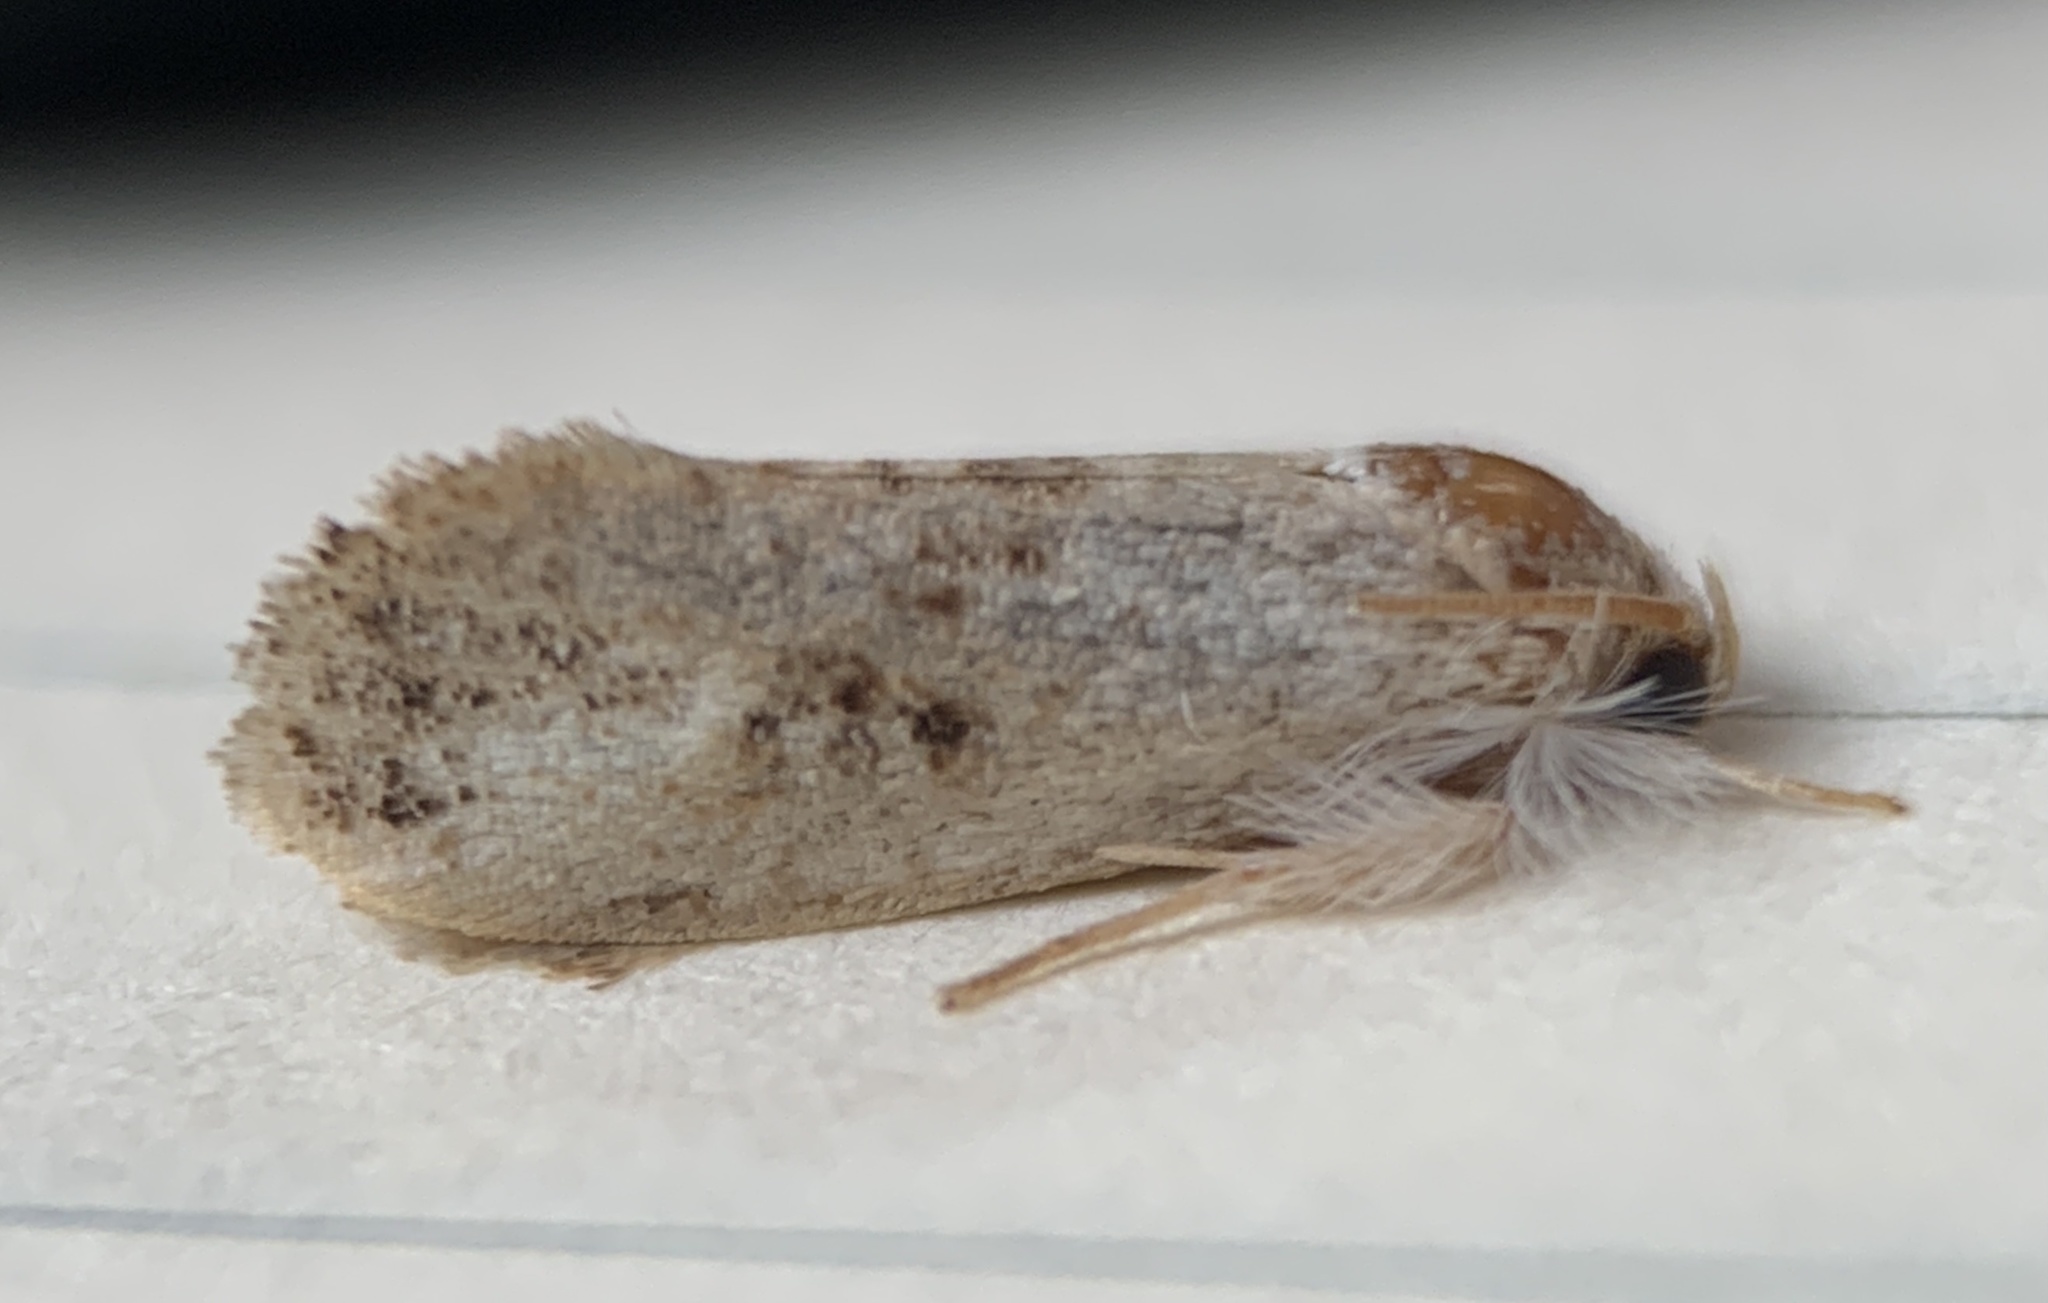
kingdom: Animalia
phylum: Arthropoda
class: Insecta
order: Lepidoptera
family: Tineidae
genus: Acrolophus
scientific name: Acrolophus mycetophagus
